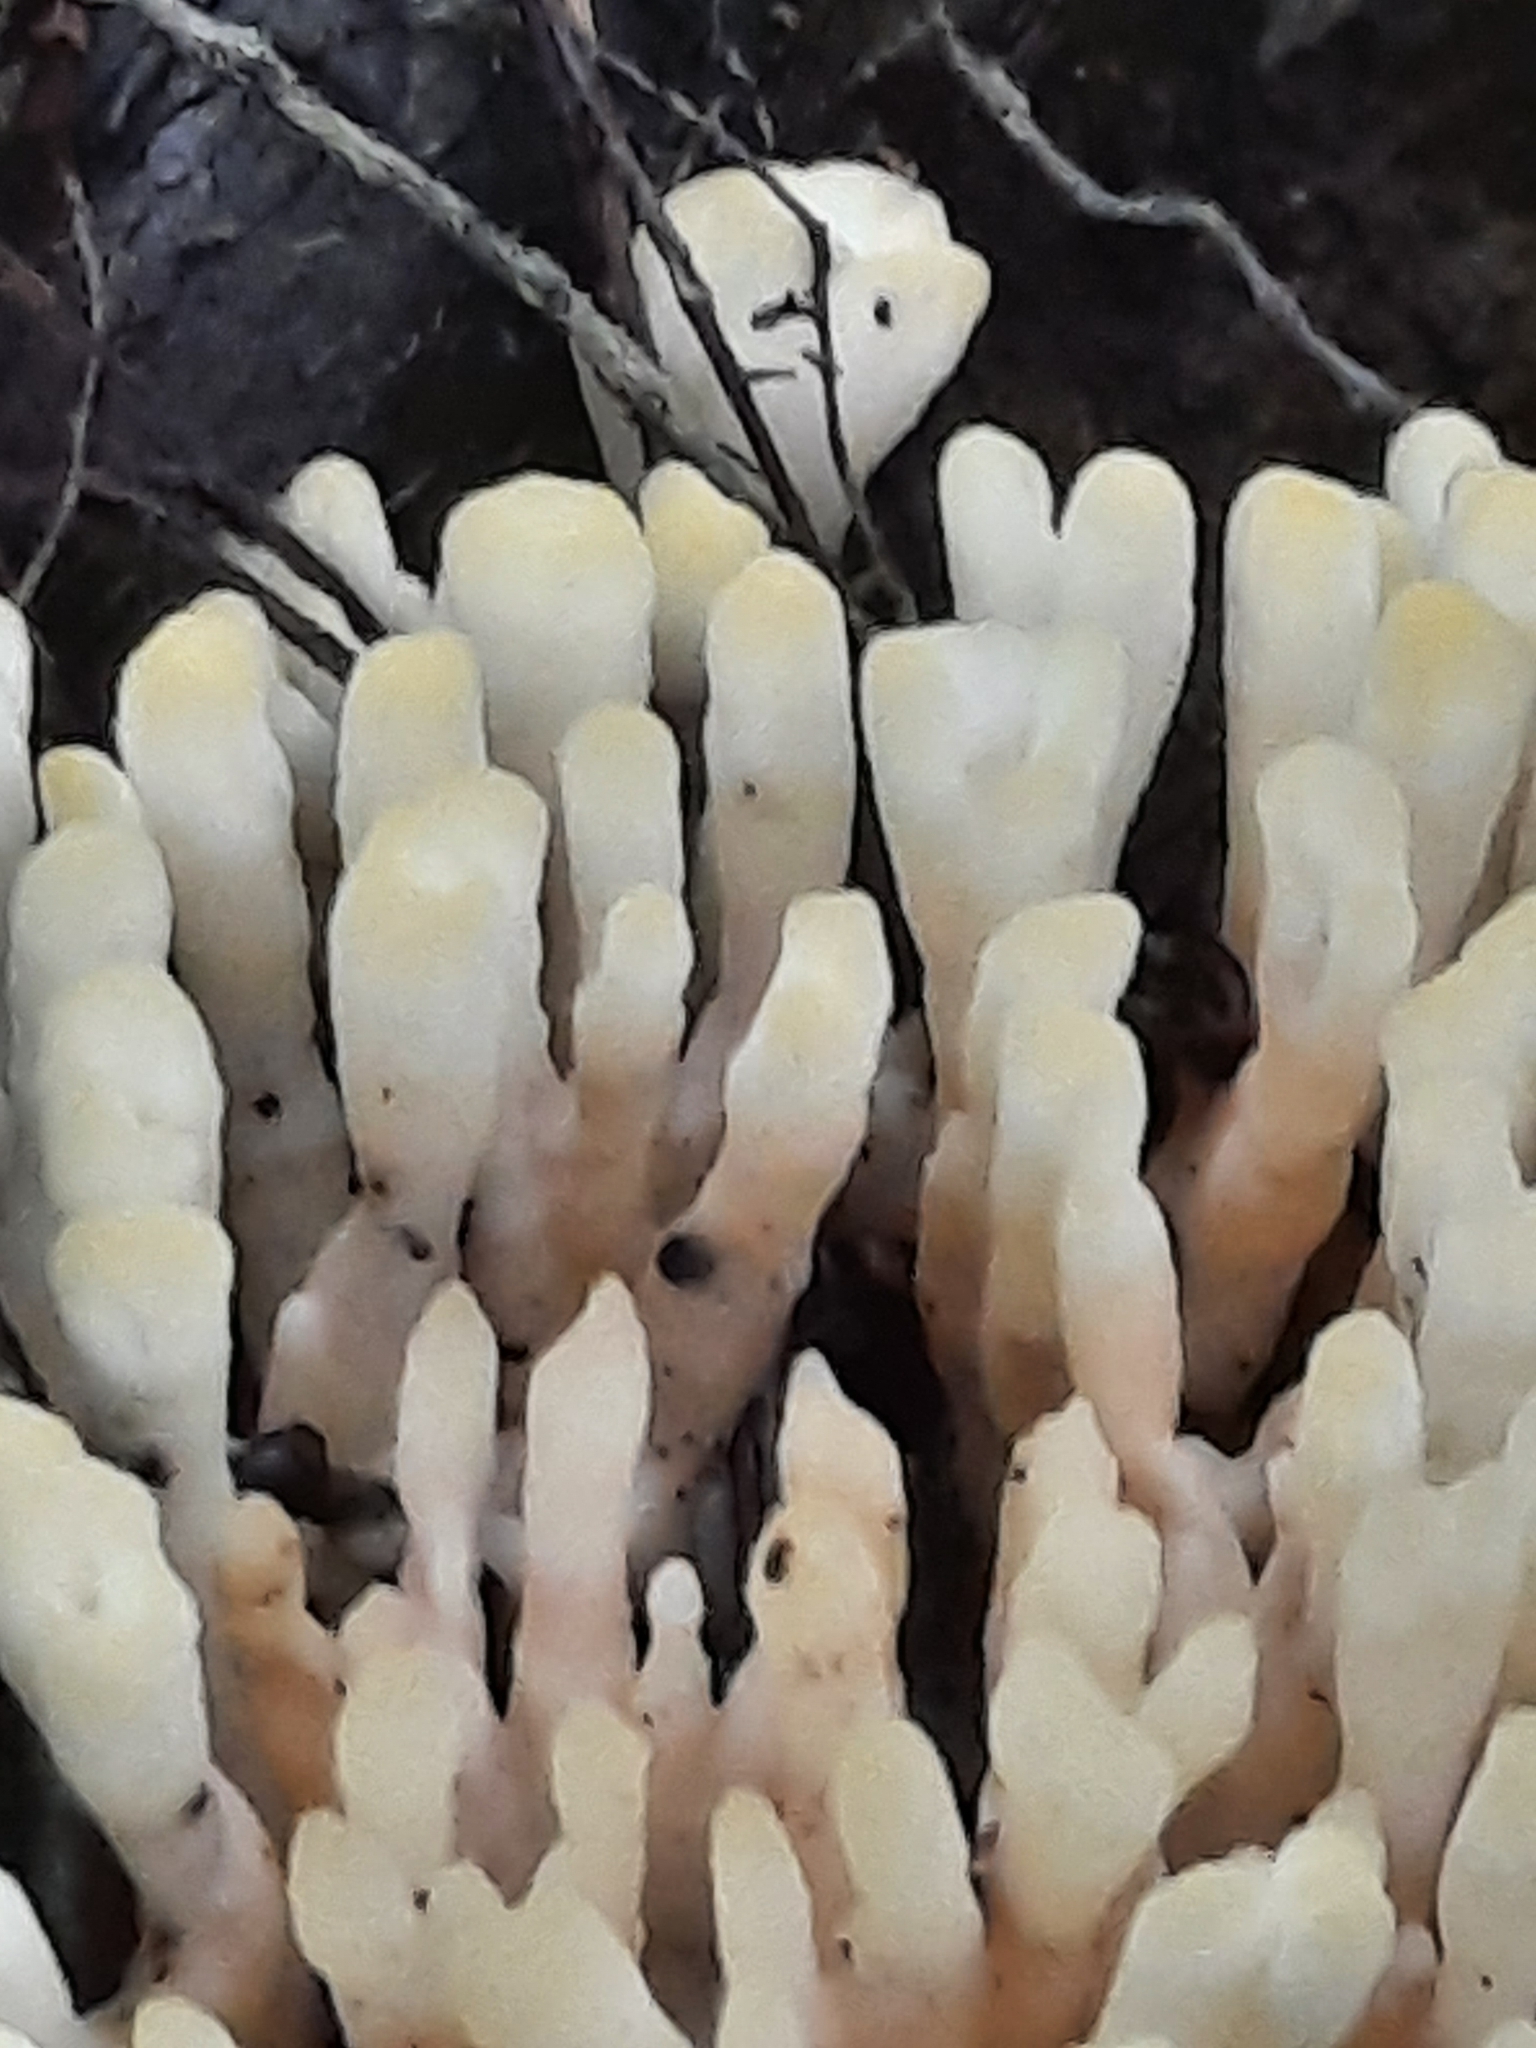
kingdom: Fungi
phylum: Basidiomycota
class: Agaricomycetes
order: Sebacinales
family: Sebacinaceae
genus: Sebacina
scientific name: Sebacina schweinitzii
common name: Jellied false coral fungus
